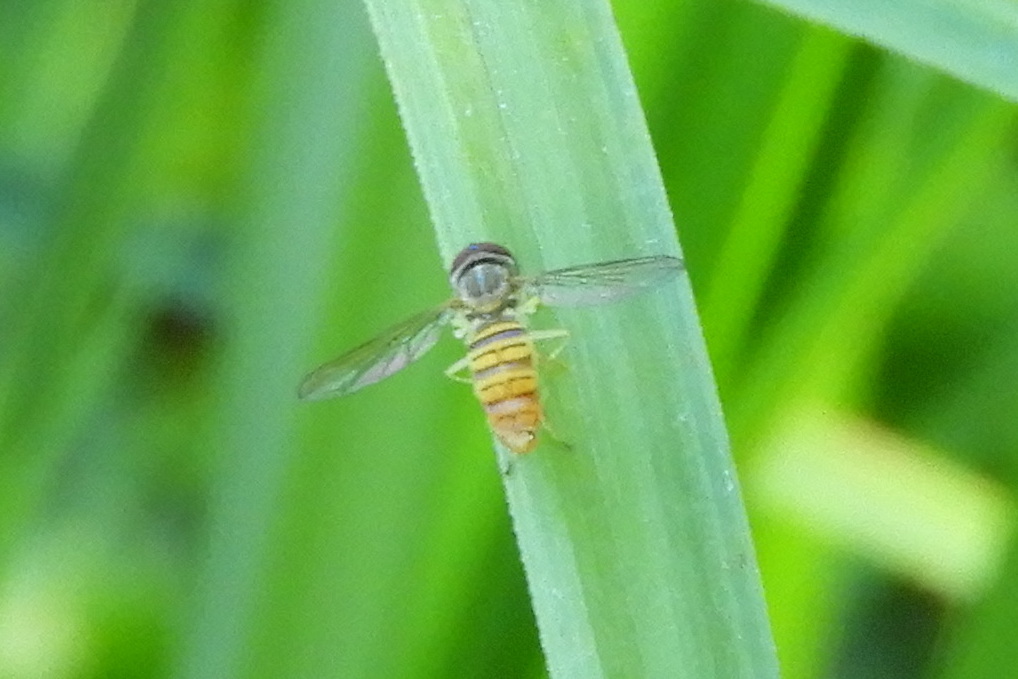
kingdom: Animalia
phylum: Arthropoda
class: Insecta
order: Diptera
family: Syrphidae
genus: Toxomerus
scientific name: Toxomerus politus
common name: Maize calligrapher
